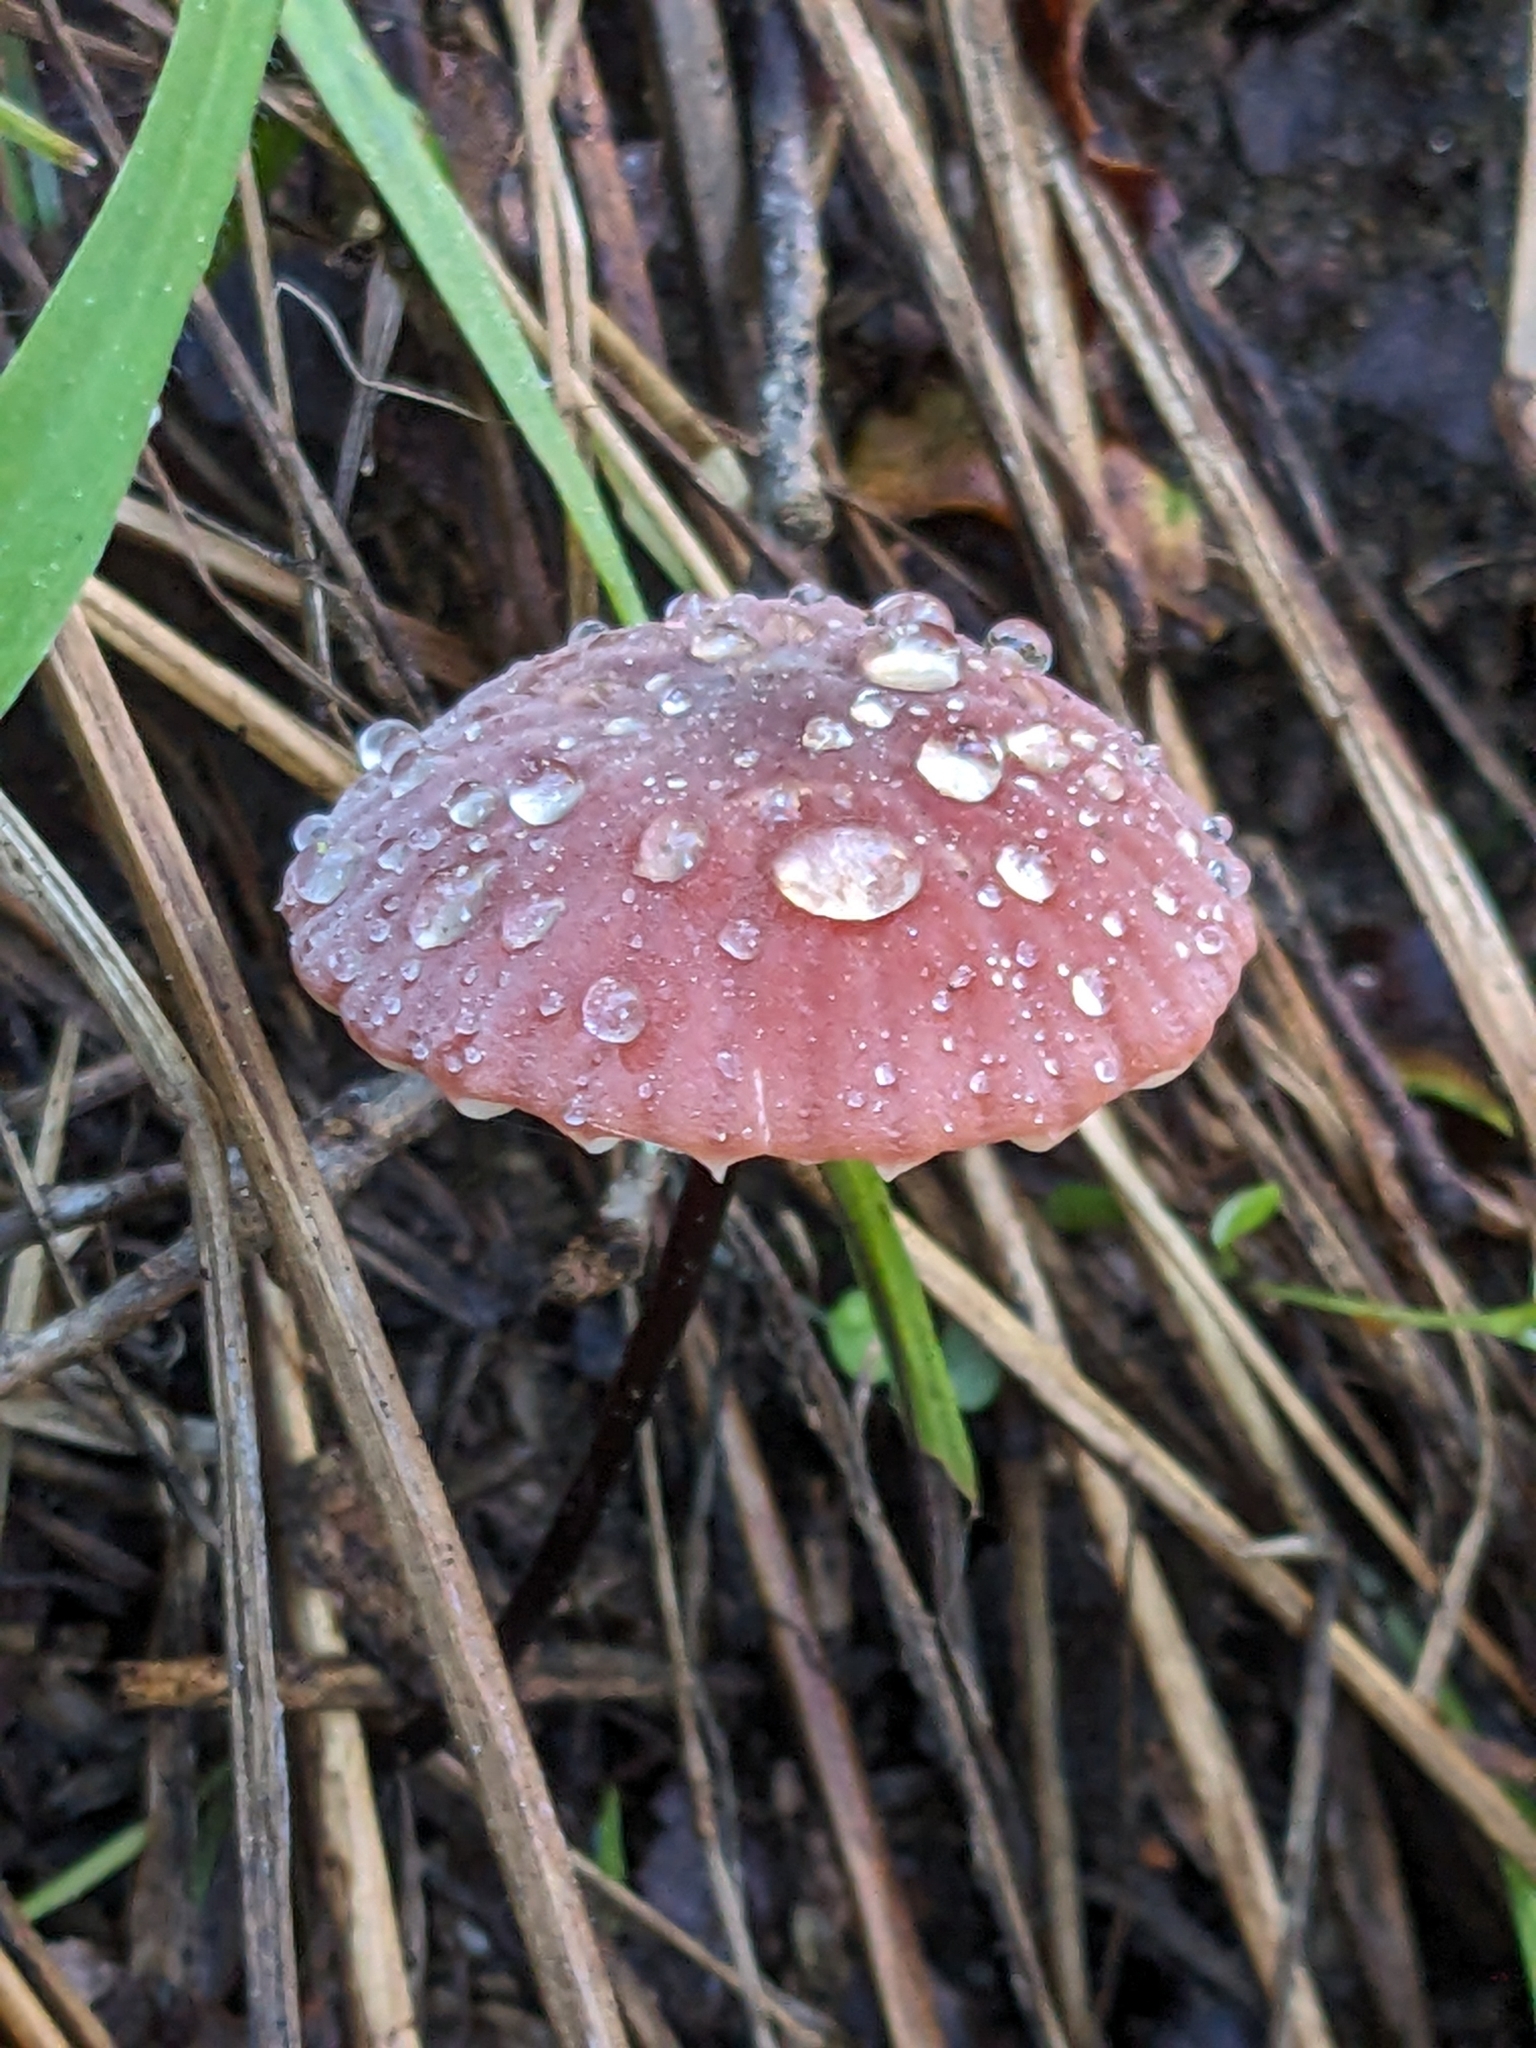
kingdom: Fungi
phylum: Basidiomycota
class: Agaricomycetes
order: Agaricales
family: Marasmiaceae
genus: Marasmius
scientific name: Marasmius plicatulus
